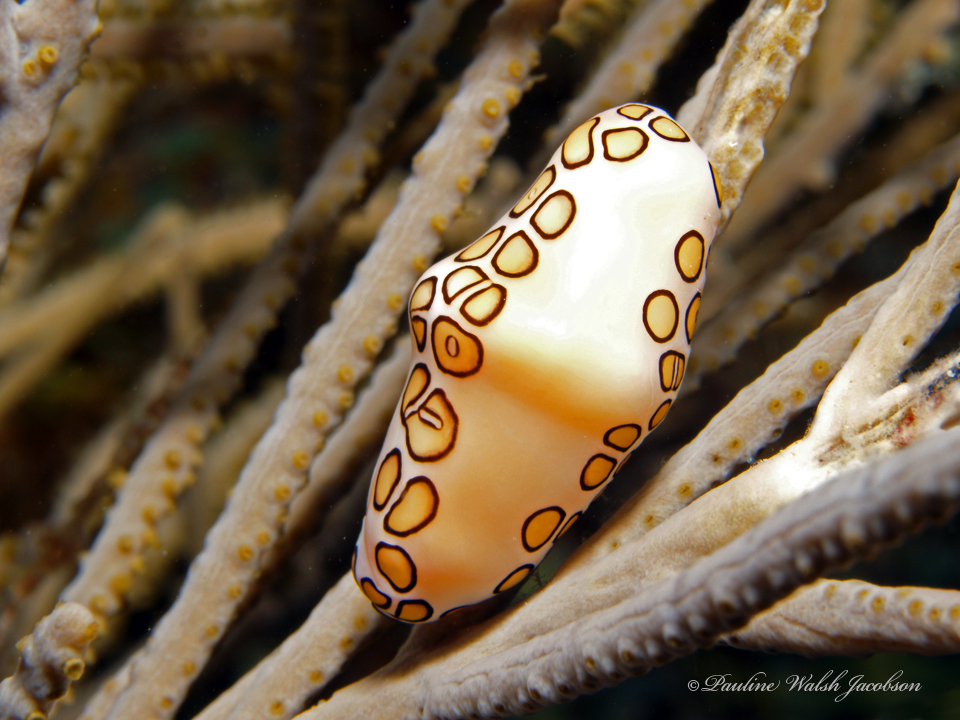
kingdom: Animalia
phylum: Mollusca
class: Gastropoda
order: Littorinimorpha
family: Ovulidae
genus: Cyphoma
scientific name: Cyphoma gibbosum
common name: Flamingo tongue
